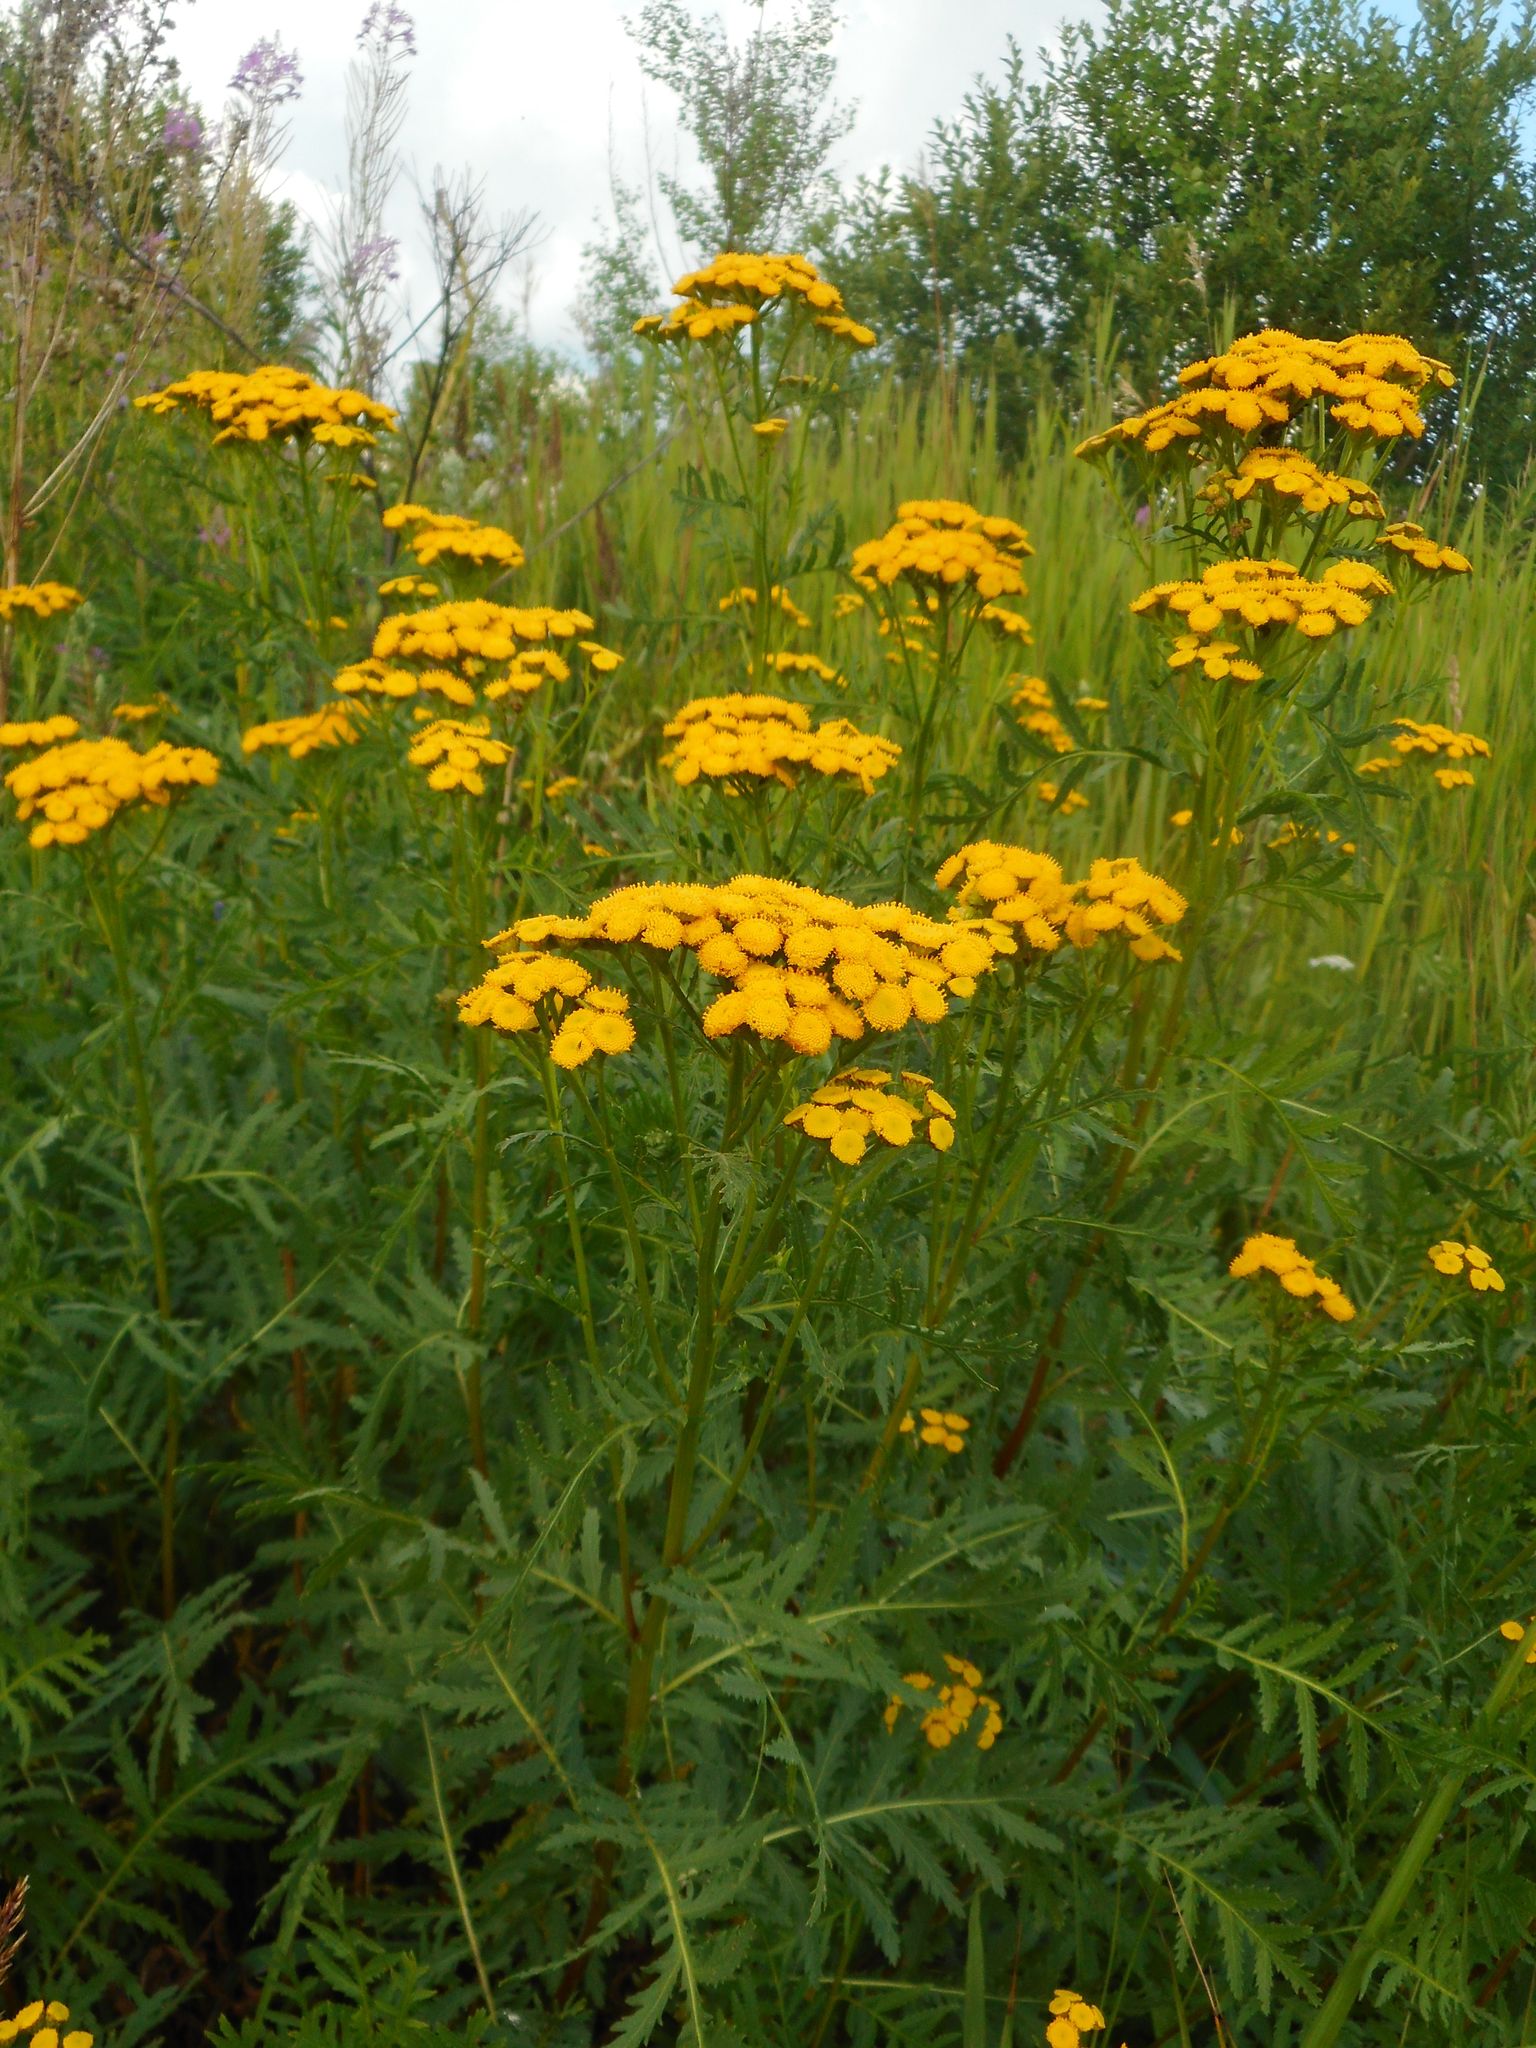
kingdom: Plantae
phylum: Tracheophyta
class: Magnoliopsida
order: Asterales
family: Asteraceae
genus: Tanacetum
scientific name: Tanacetum vulgare
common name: Common tansy
